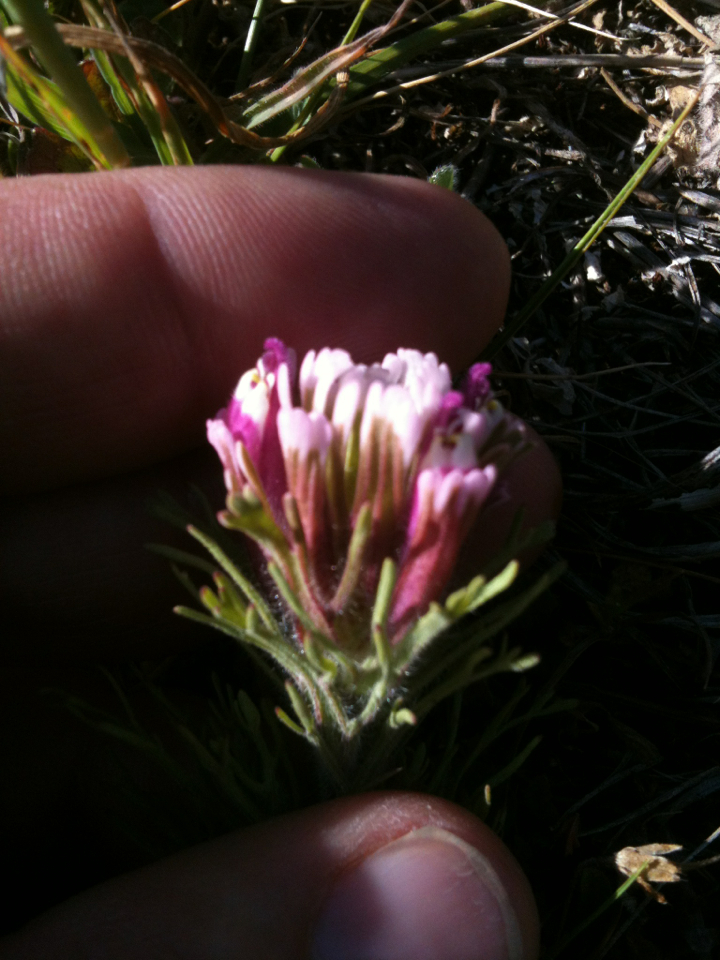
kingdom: Plantae
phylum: Tracheophyta
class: Magnoliopsida
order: Lamiales
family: Orobanchaceae
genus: Castilleja
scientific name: Castilleja exserta
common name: Purple owl-clover
